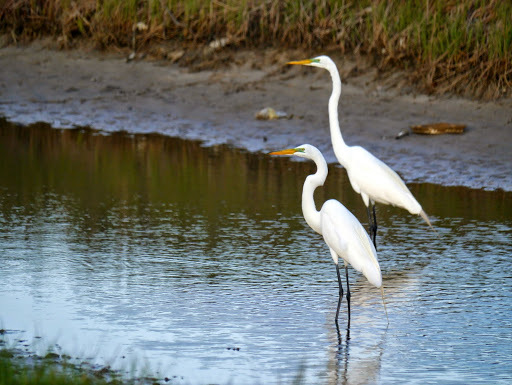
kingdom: Animalia
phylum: Chordata
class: Aves
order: Pelecaniformes
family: Ardeidae
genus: Ardea
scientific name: Ardea alba
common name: Great egret
